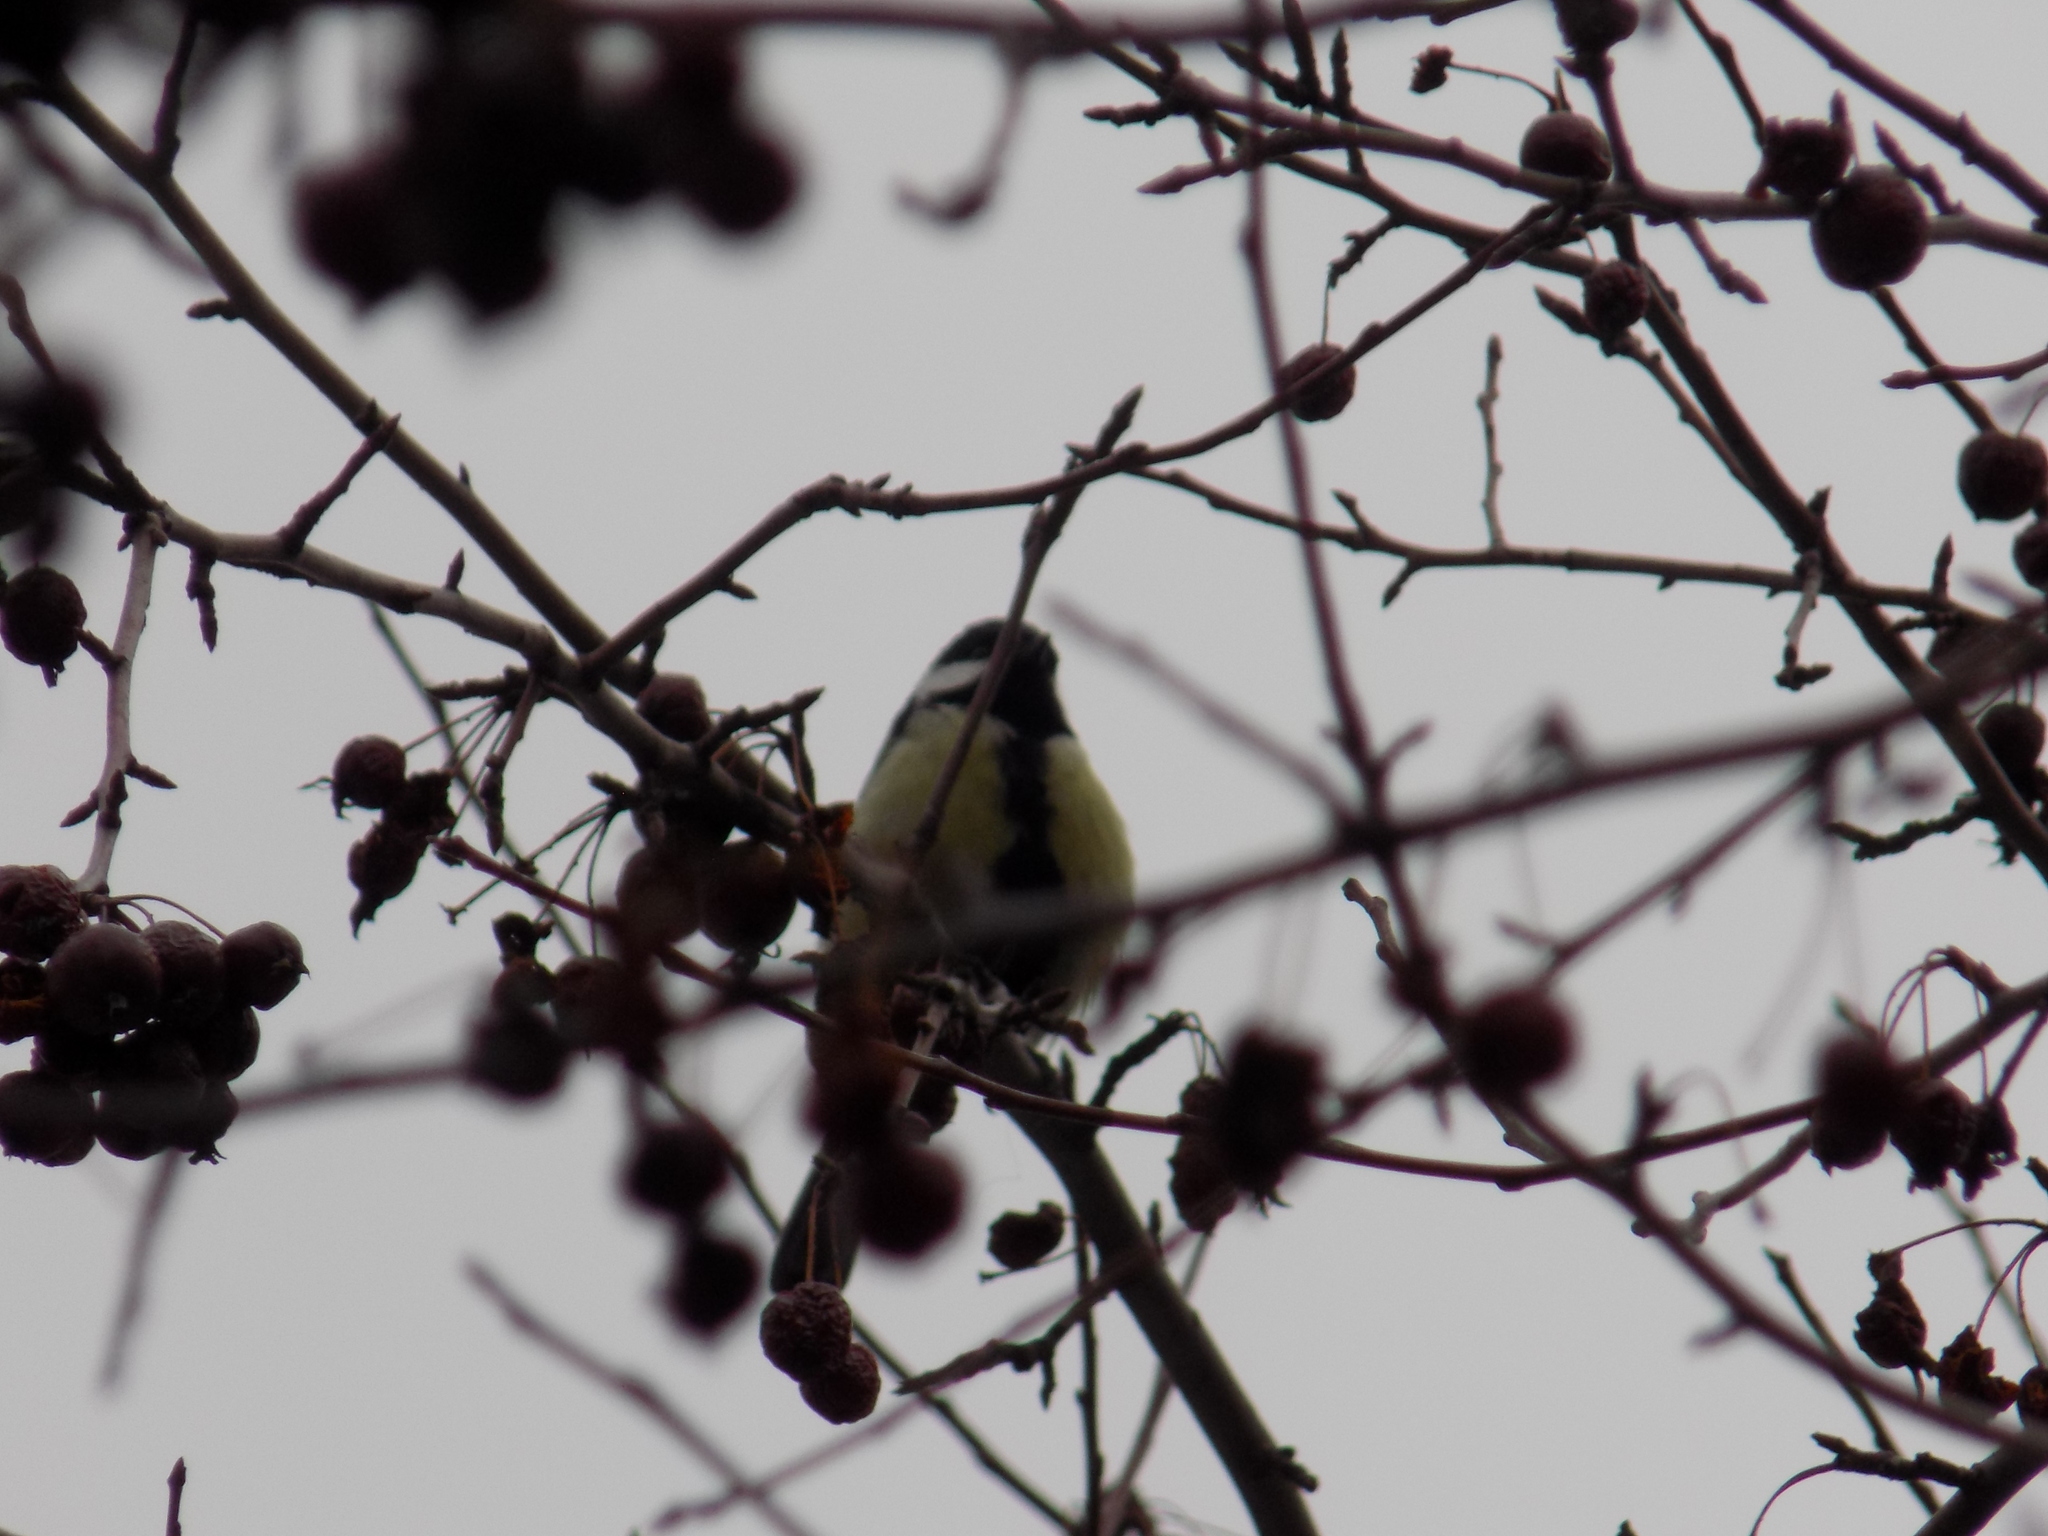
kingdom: Animalia
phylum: Chordata
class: Aves
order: Passeriformes
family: Paridae
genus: Parus
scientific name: Parus major
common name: Great tit
